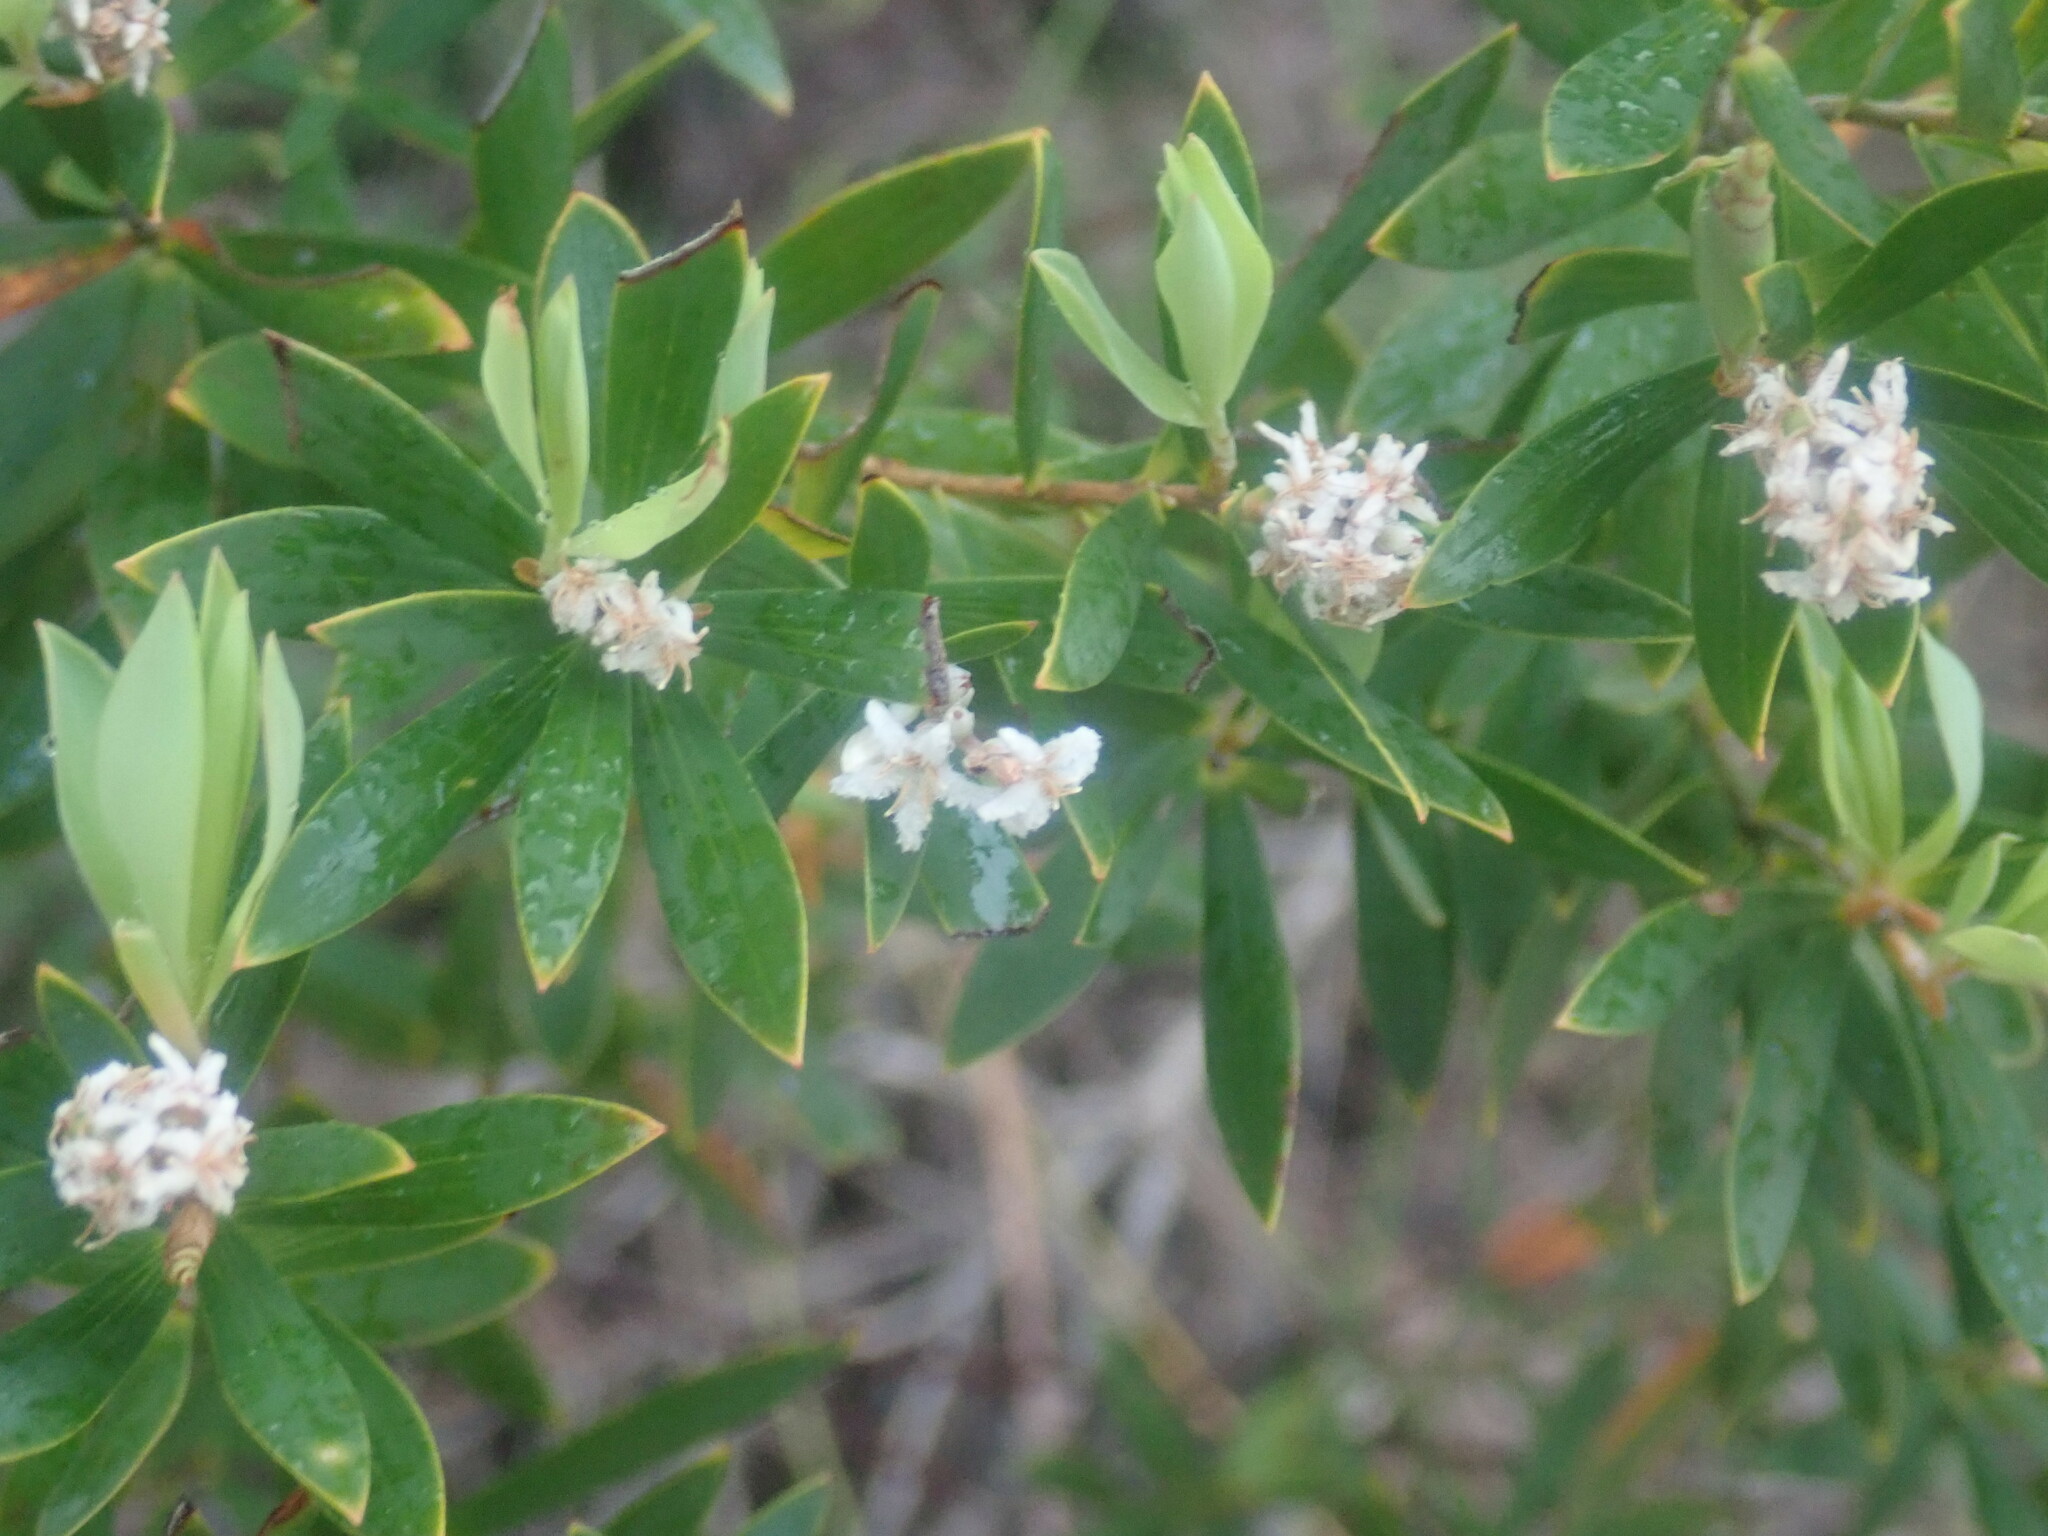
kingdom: Plantae
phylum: Tracheophyta
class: Magnoliopsida
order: Ericales
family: Ericaceae
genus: Leptecophylla
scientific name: Leptecophylla parvifolia
